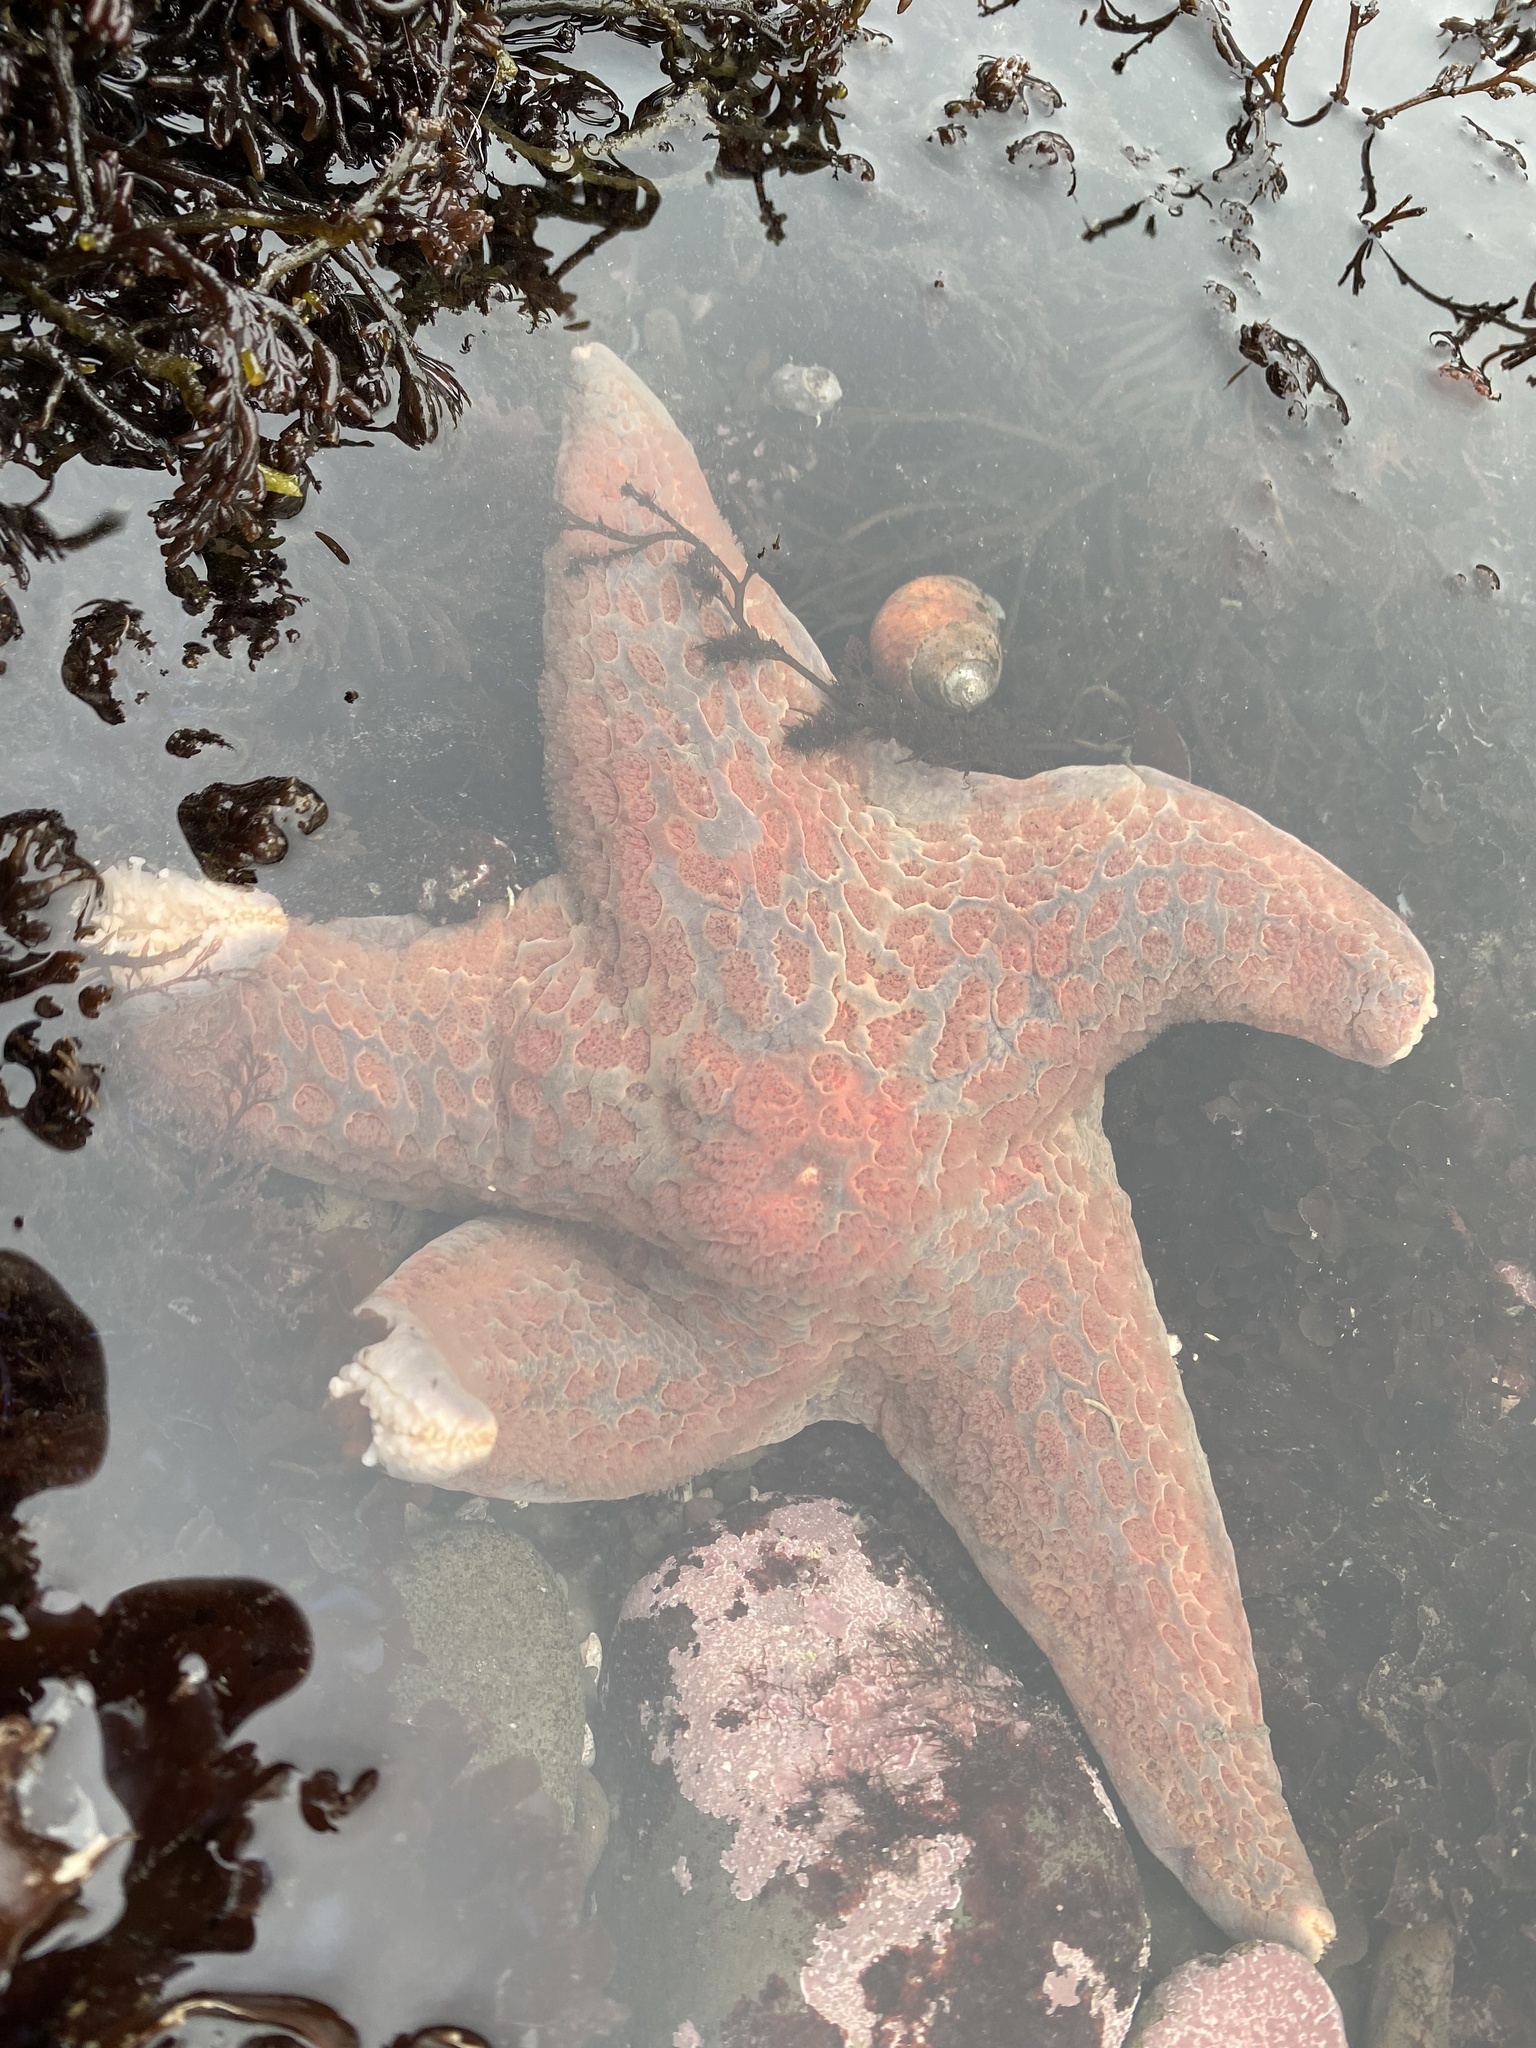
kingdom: Animalia
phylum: Echinodermata
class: Asteroidea
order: Valvatida
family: Asteropseidae
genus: Dermasterias
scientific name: Dermasterias imbricata
